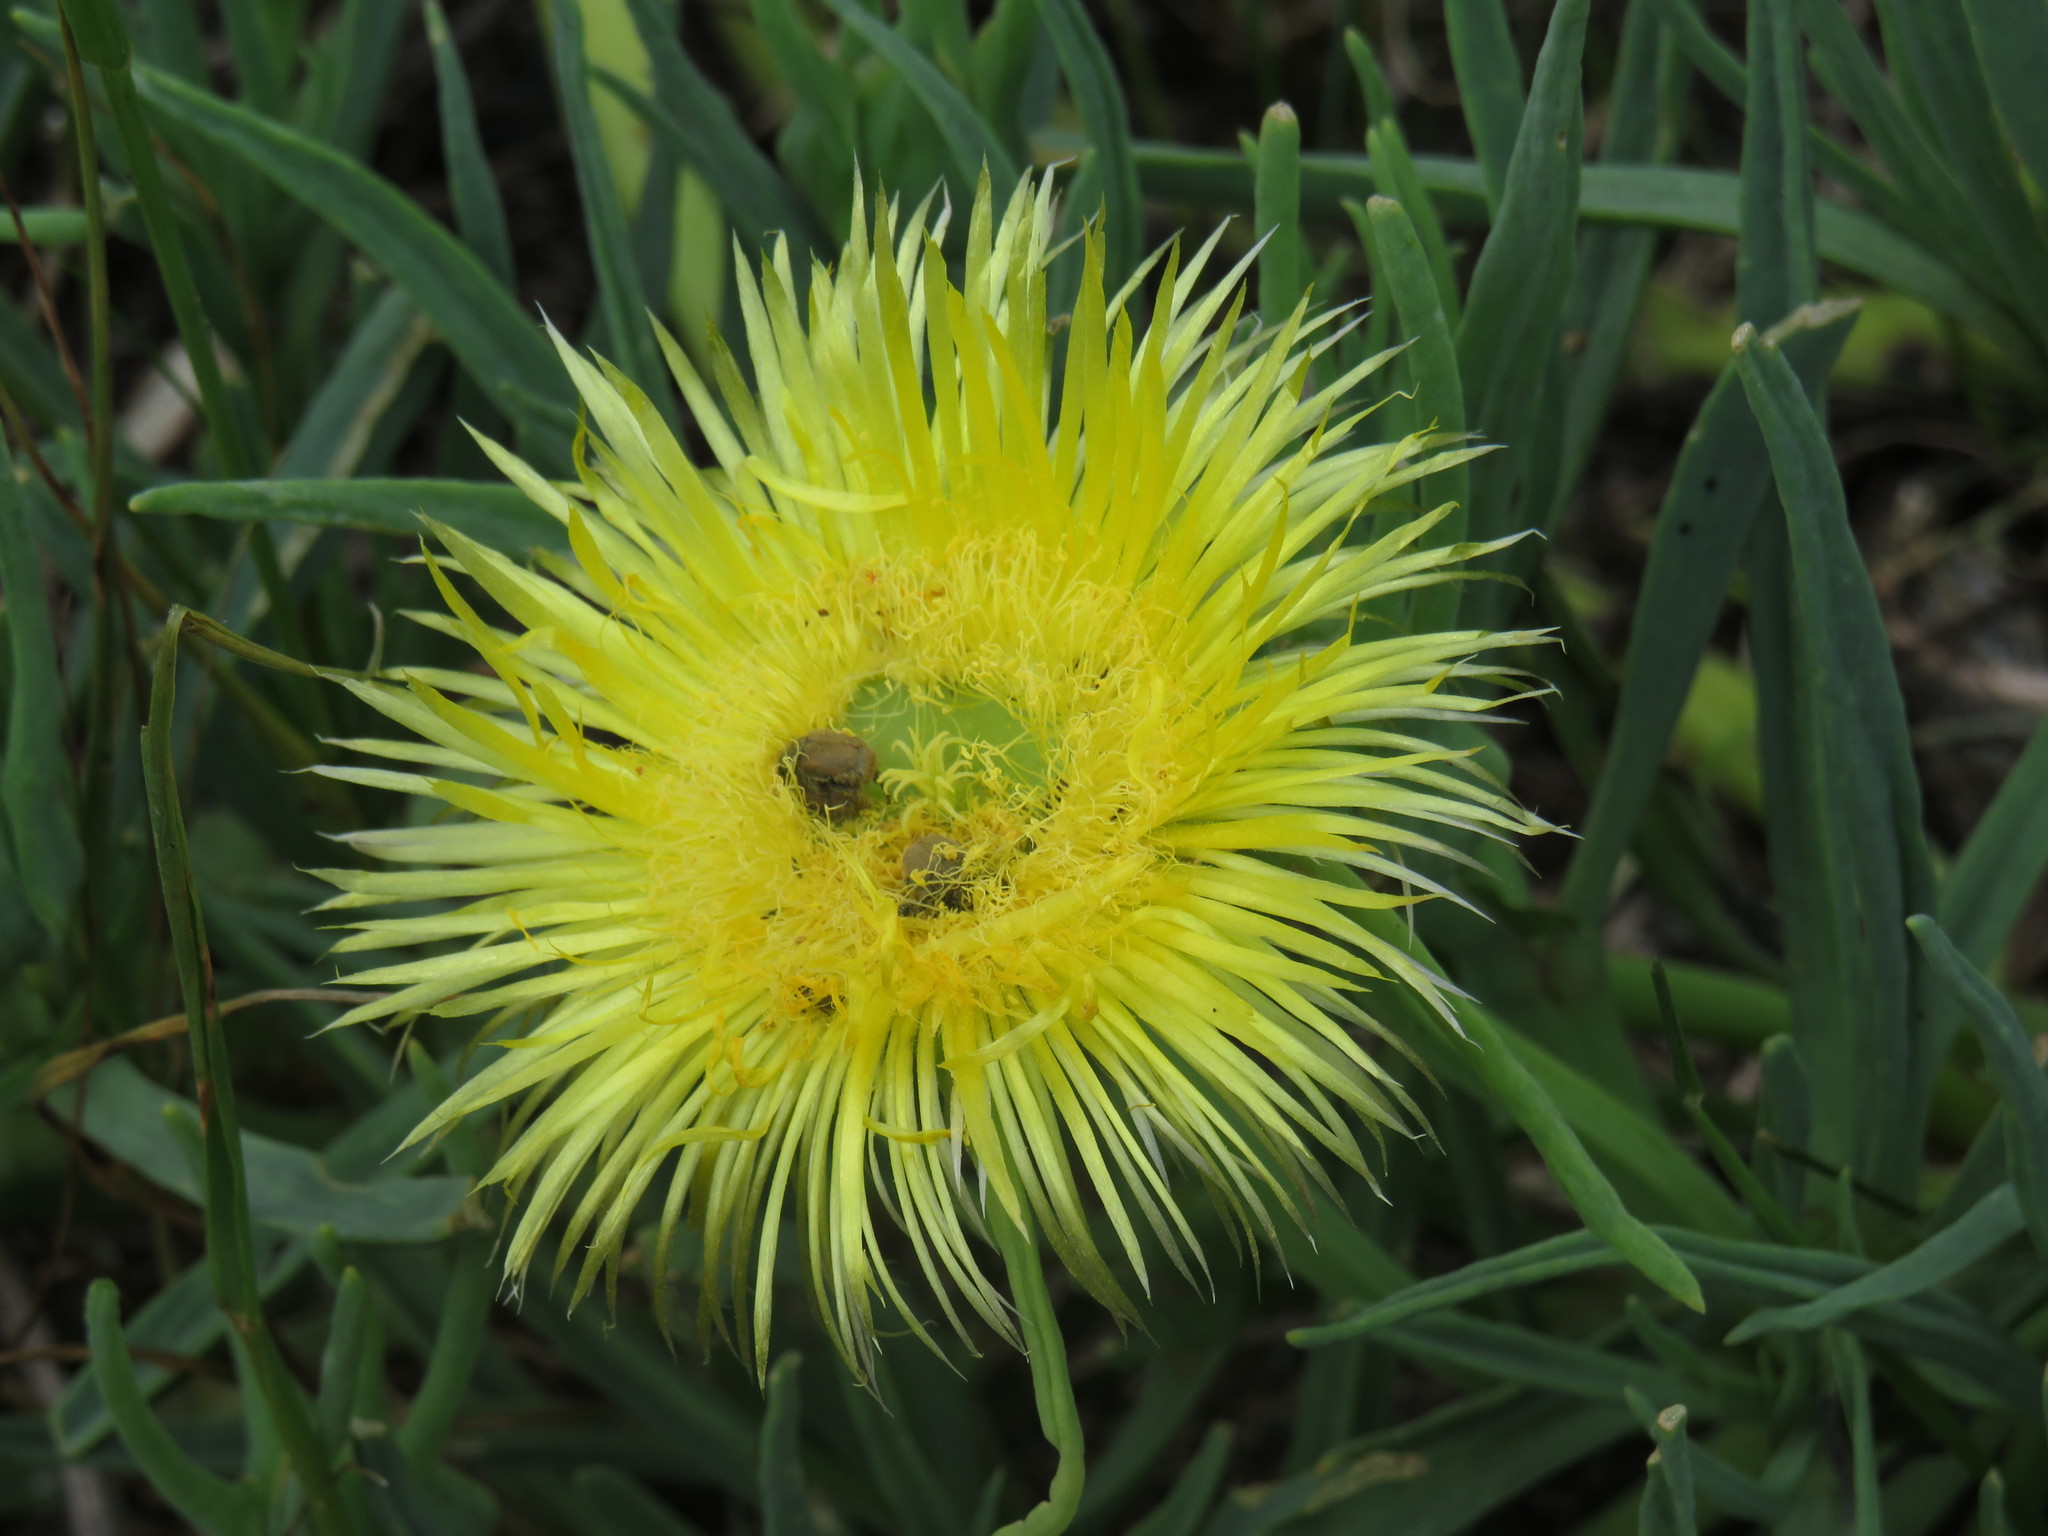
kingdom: Plantae
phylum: Tracheophyta
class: Magnoliopsida
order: Caryophyllales
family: Aizoaceae
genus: Conicosia
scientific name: Conicosia pugioniformis
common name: Narrow-leaved iceplant
